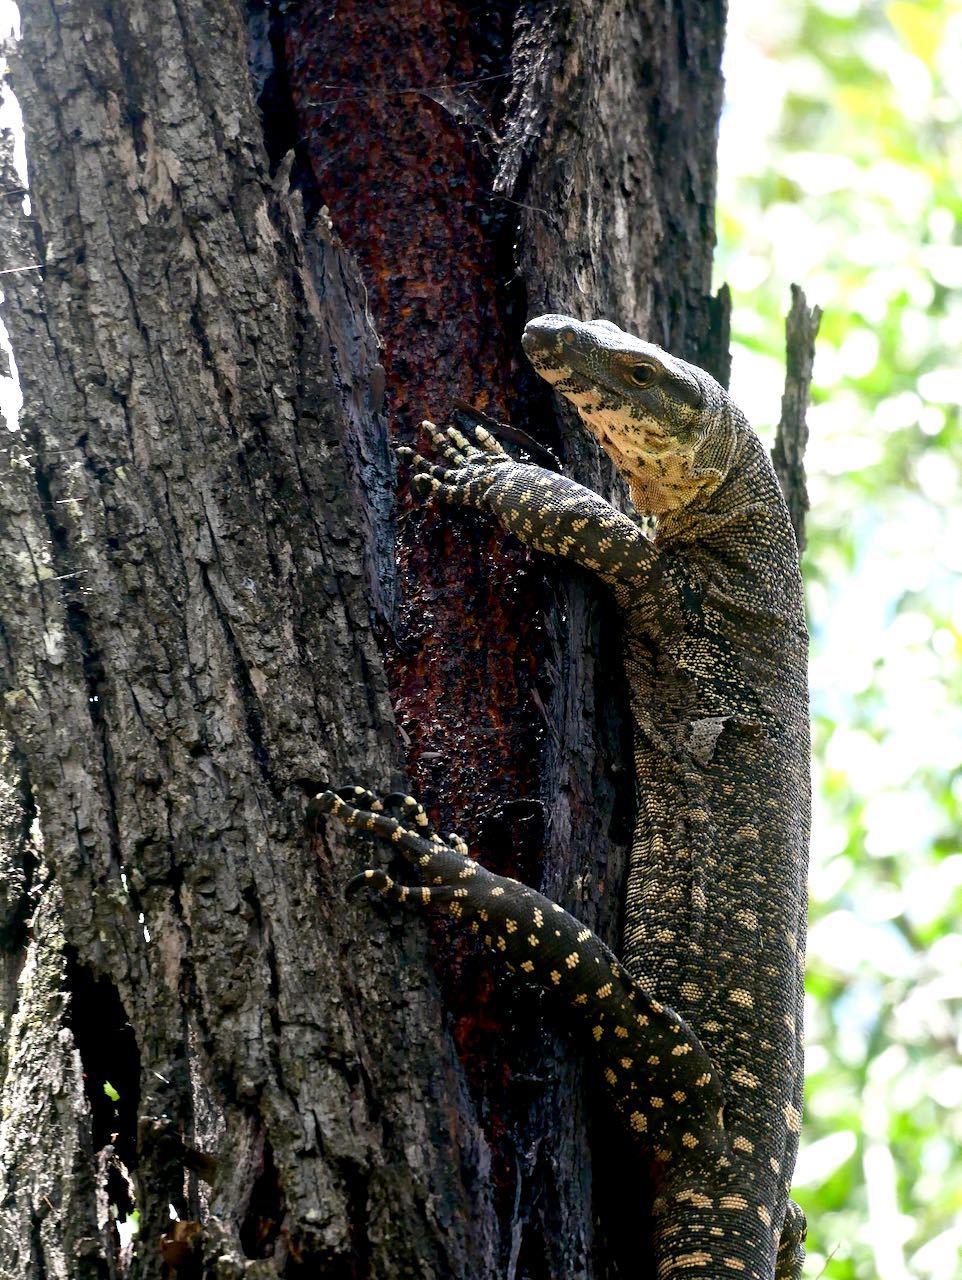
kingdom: Animalia
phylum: Chordata
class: Squamata
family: Varanidae
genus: Varanus
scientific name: Varanus varius
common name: Lace monitor
